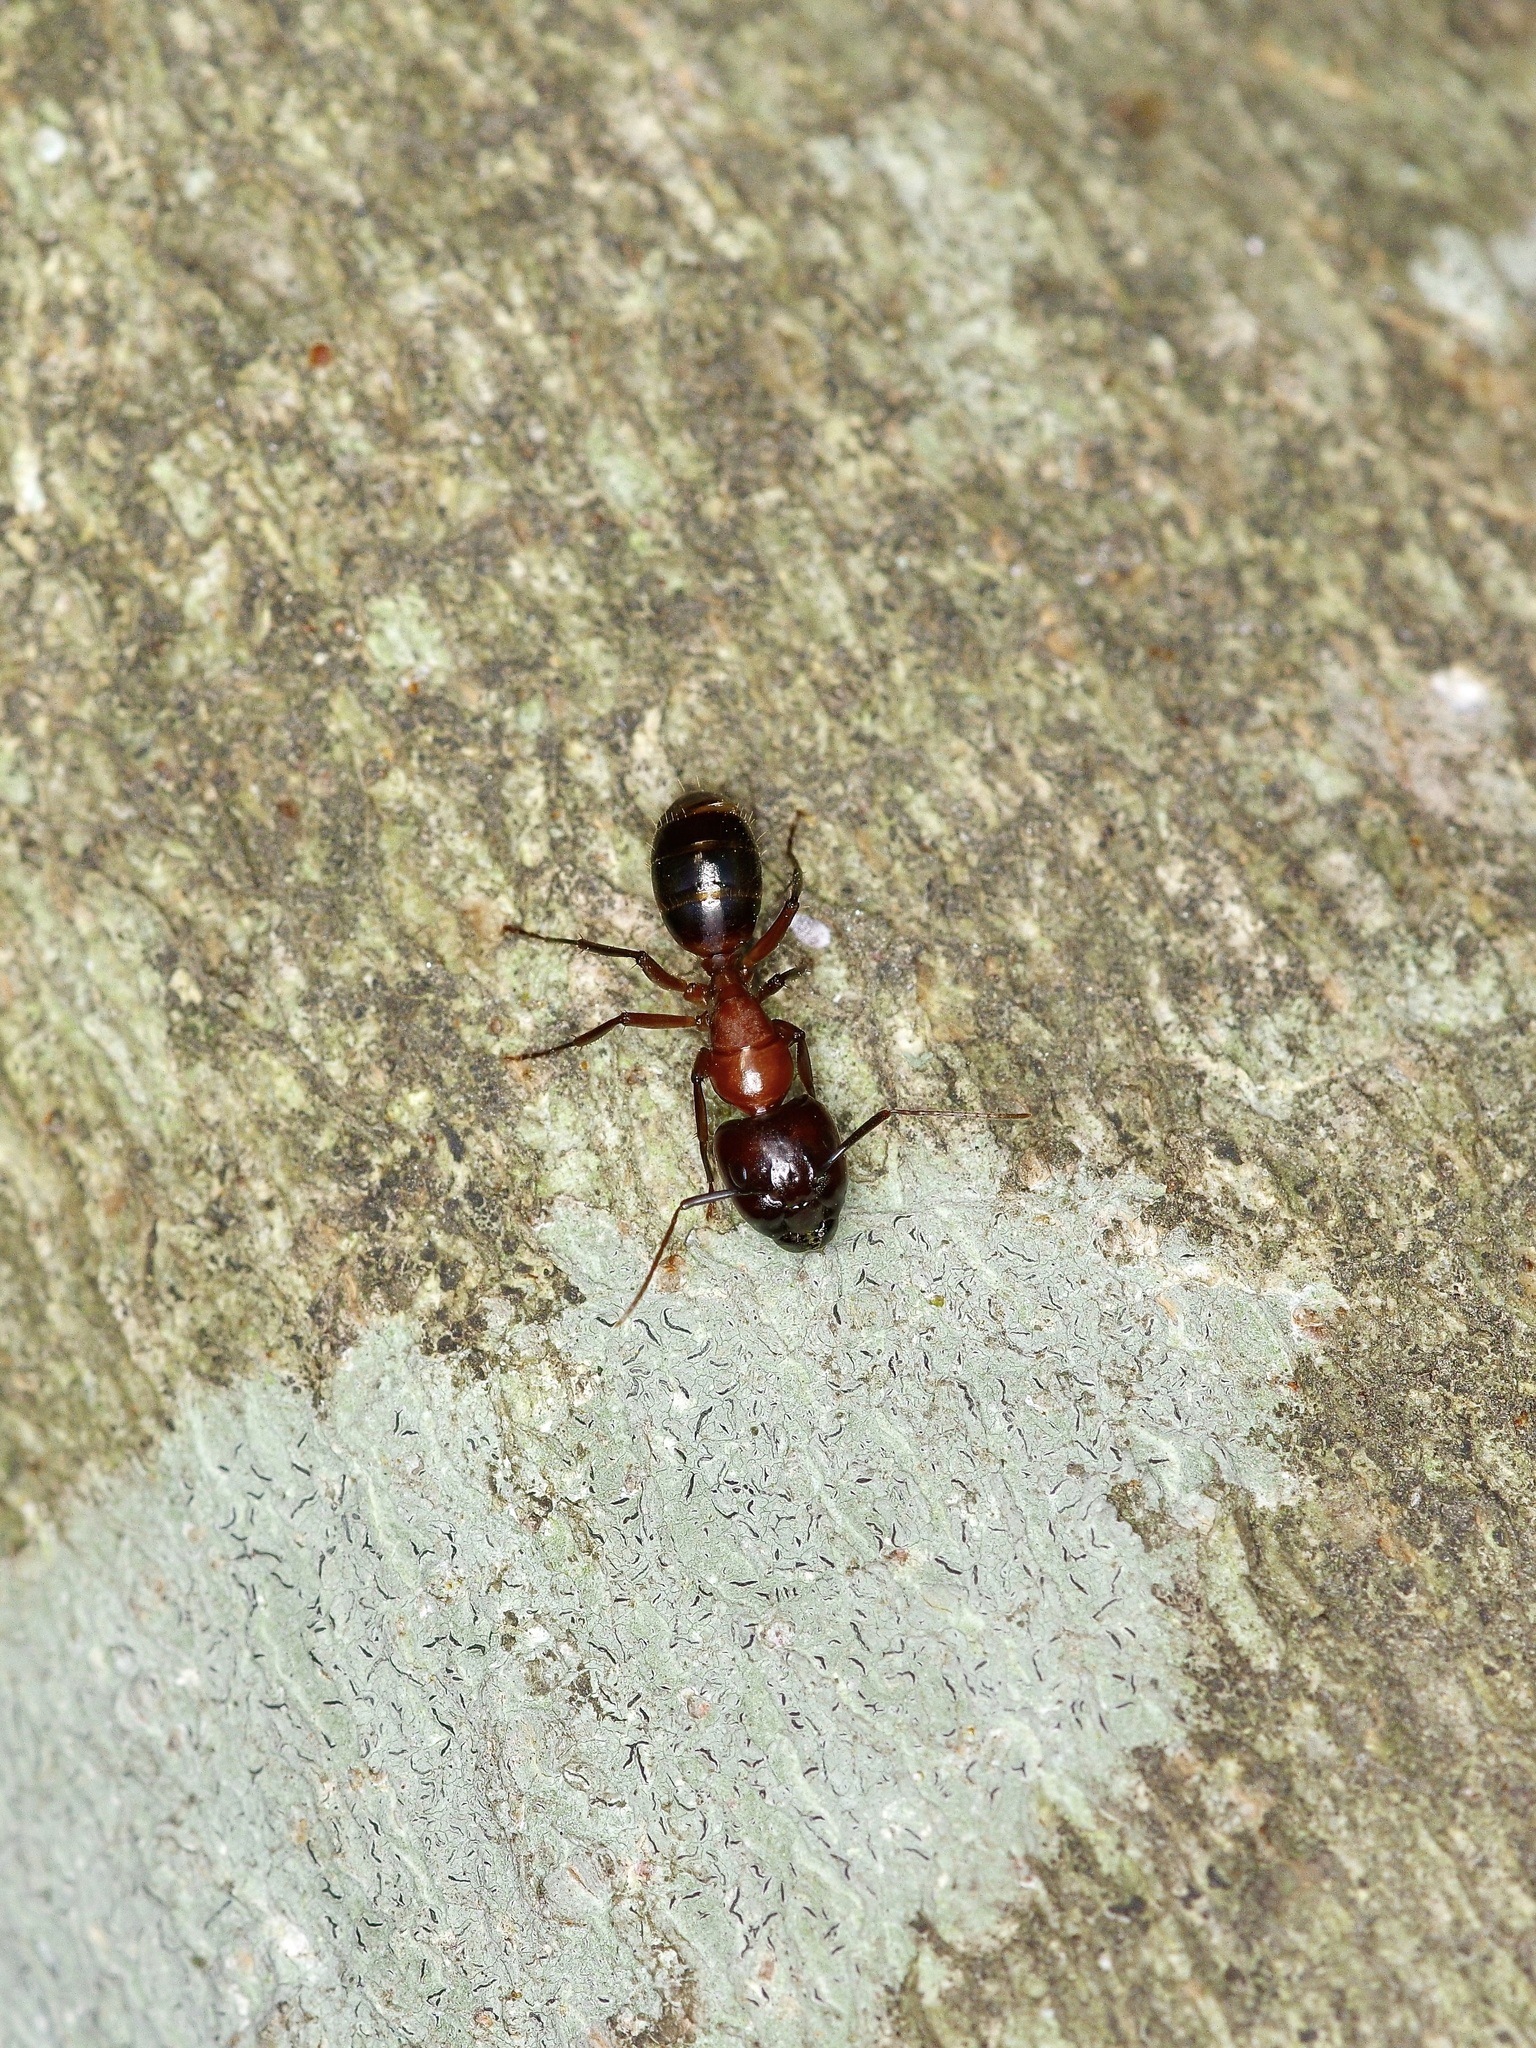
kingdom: Animalia
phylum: Arthropoda
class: Insecta
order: Hymenoptera
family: Formicidae
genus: Camponotus
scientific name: Camponotus texanus
